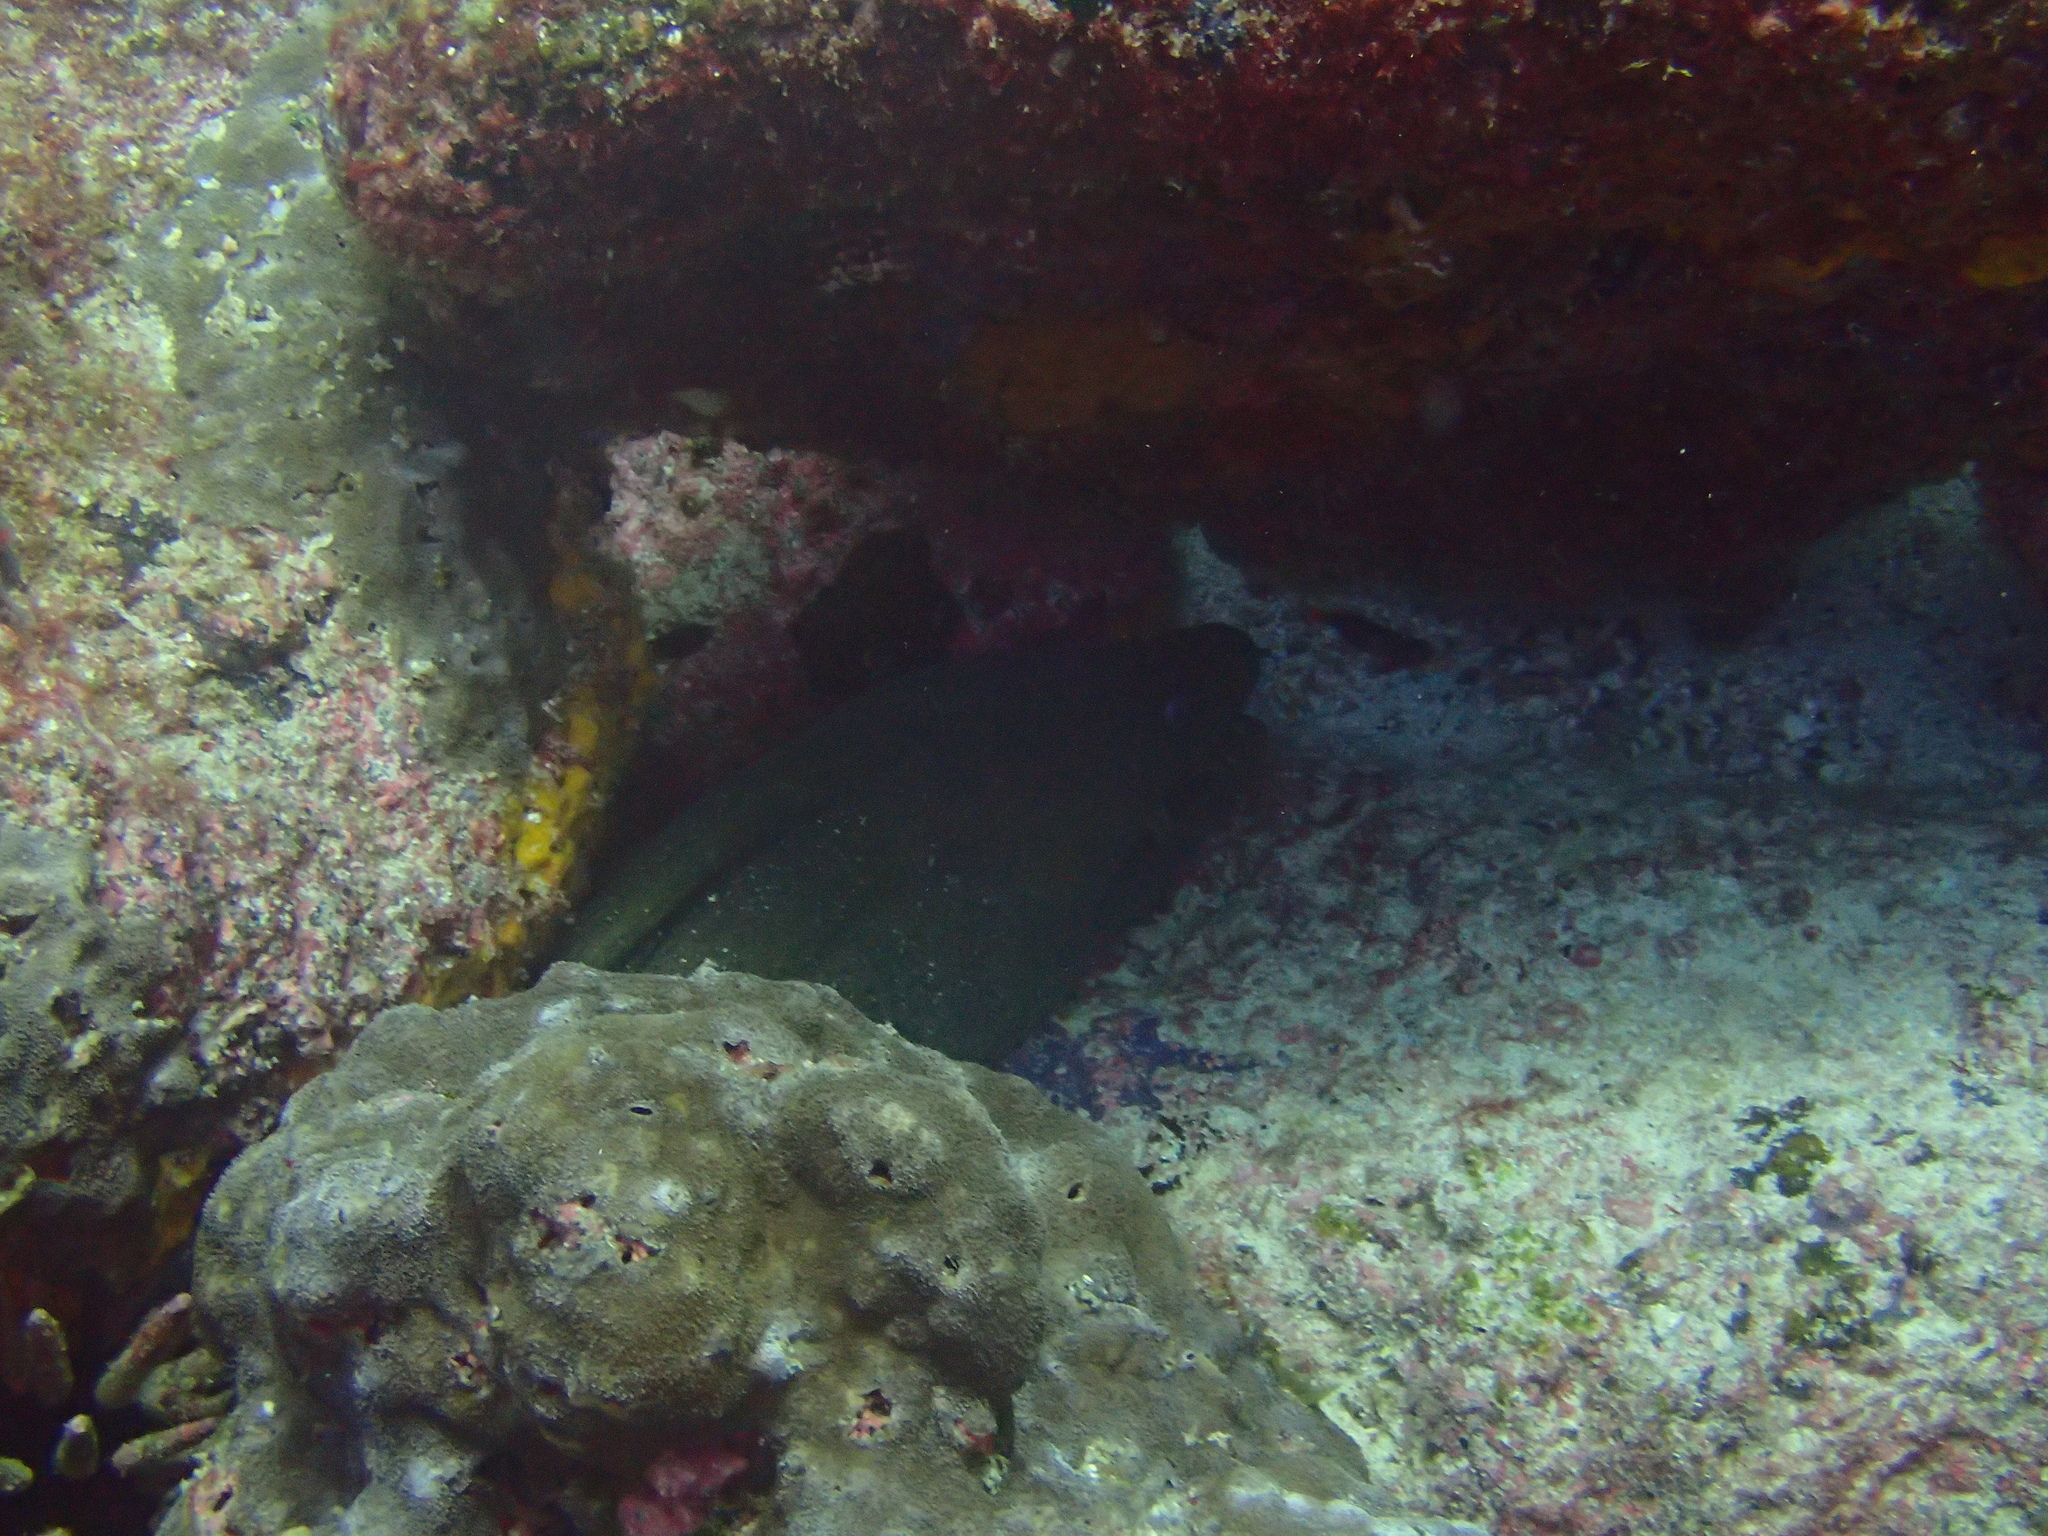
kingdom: Animalia
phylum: Chordata
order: Anguilliformes
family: Muraenidae
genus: Gymnothorax
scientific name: Gymnothorax castaneus
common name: Chestnut moray
